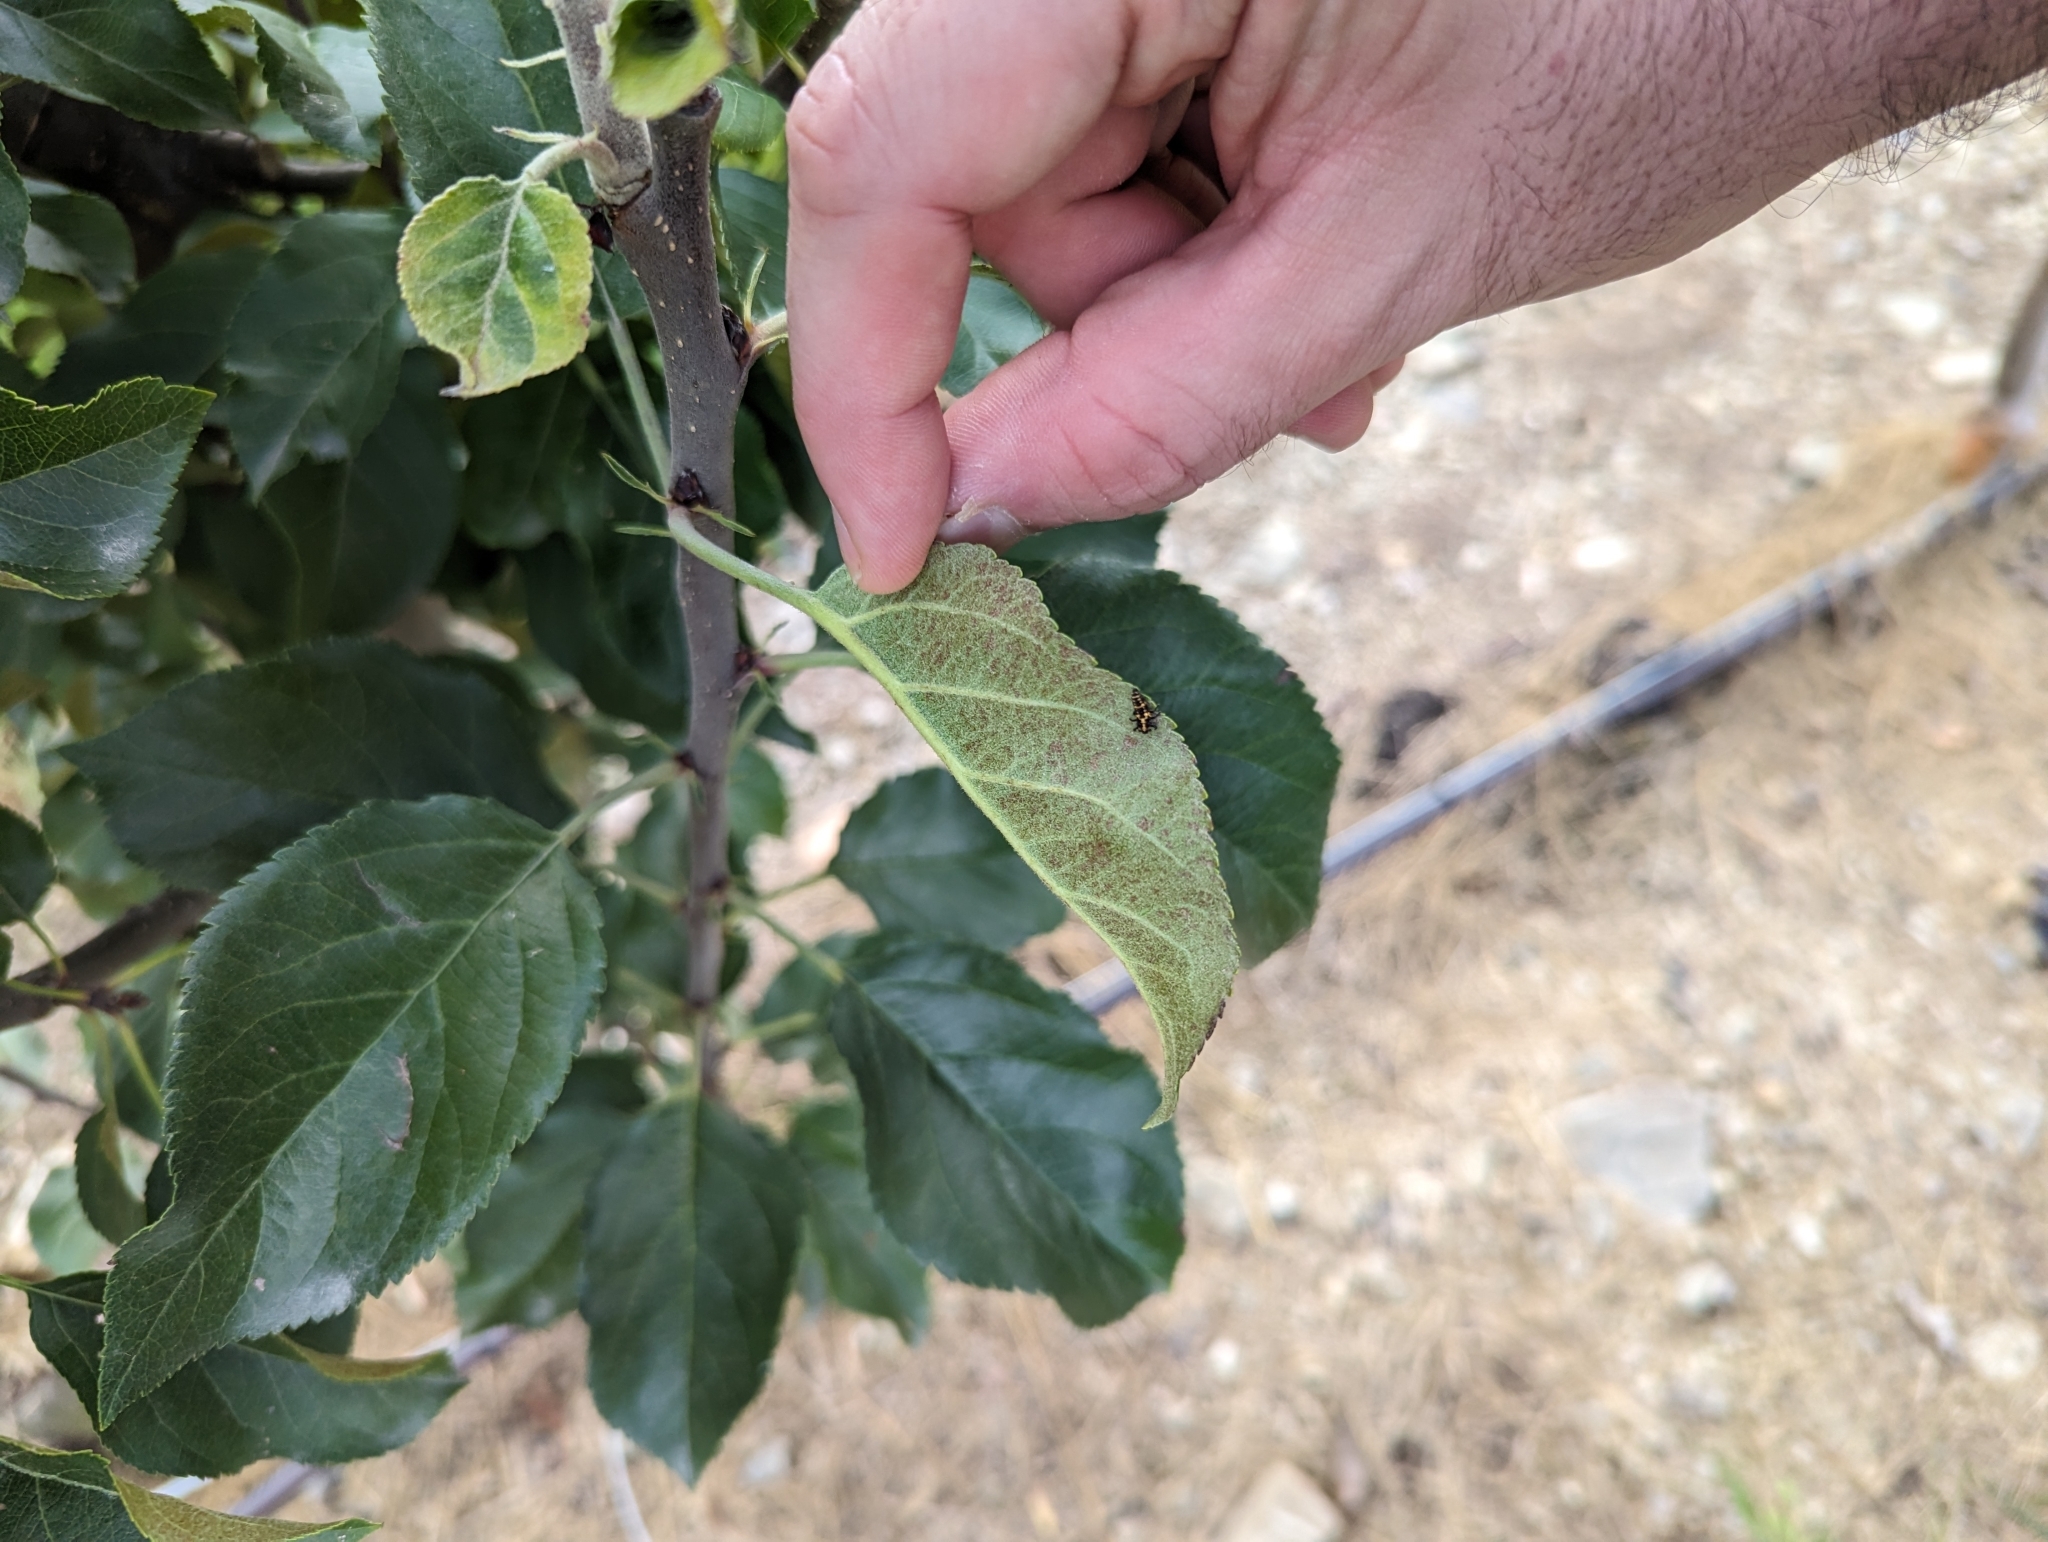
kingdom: Animalia
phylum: Arthropoda
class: Insecta
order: Coleoptera
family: Coccinellidae
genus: Coleomegilla
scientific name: Coleomegilla maculata
